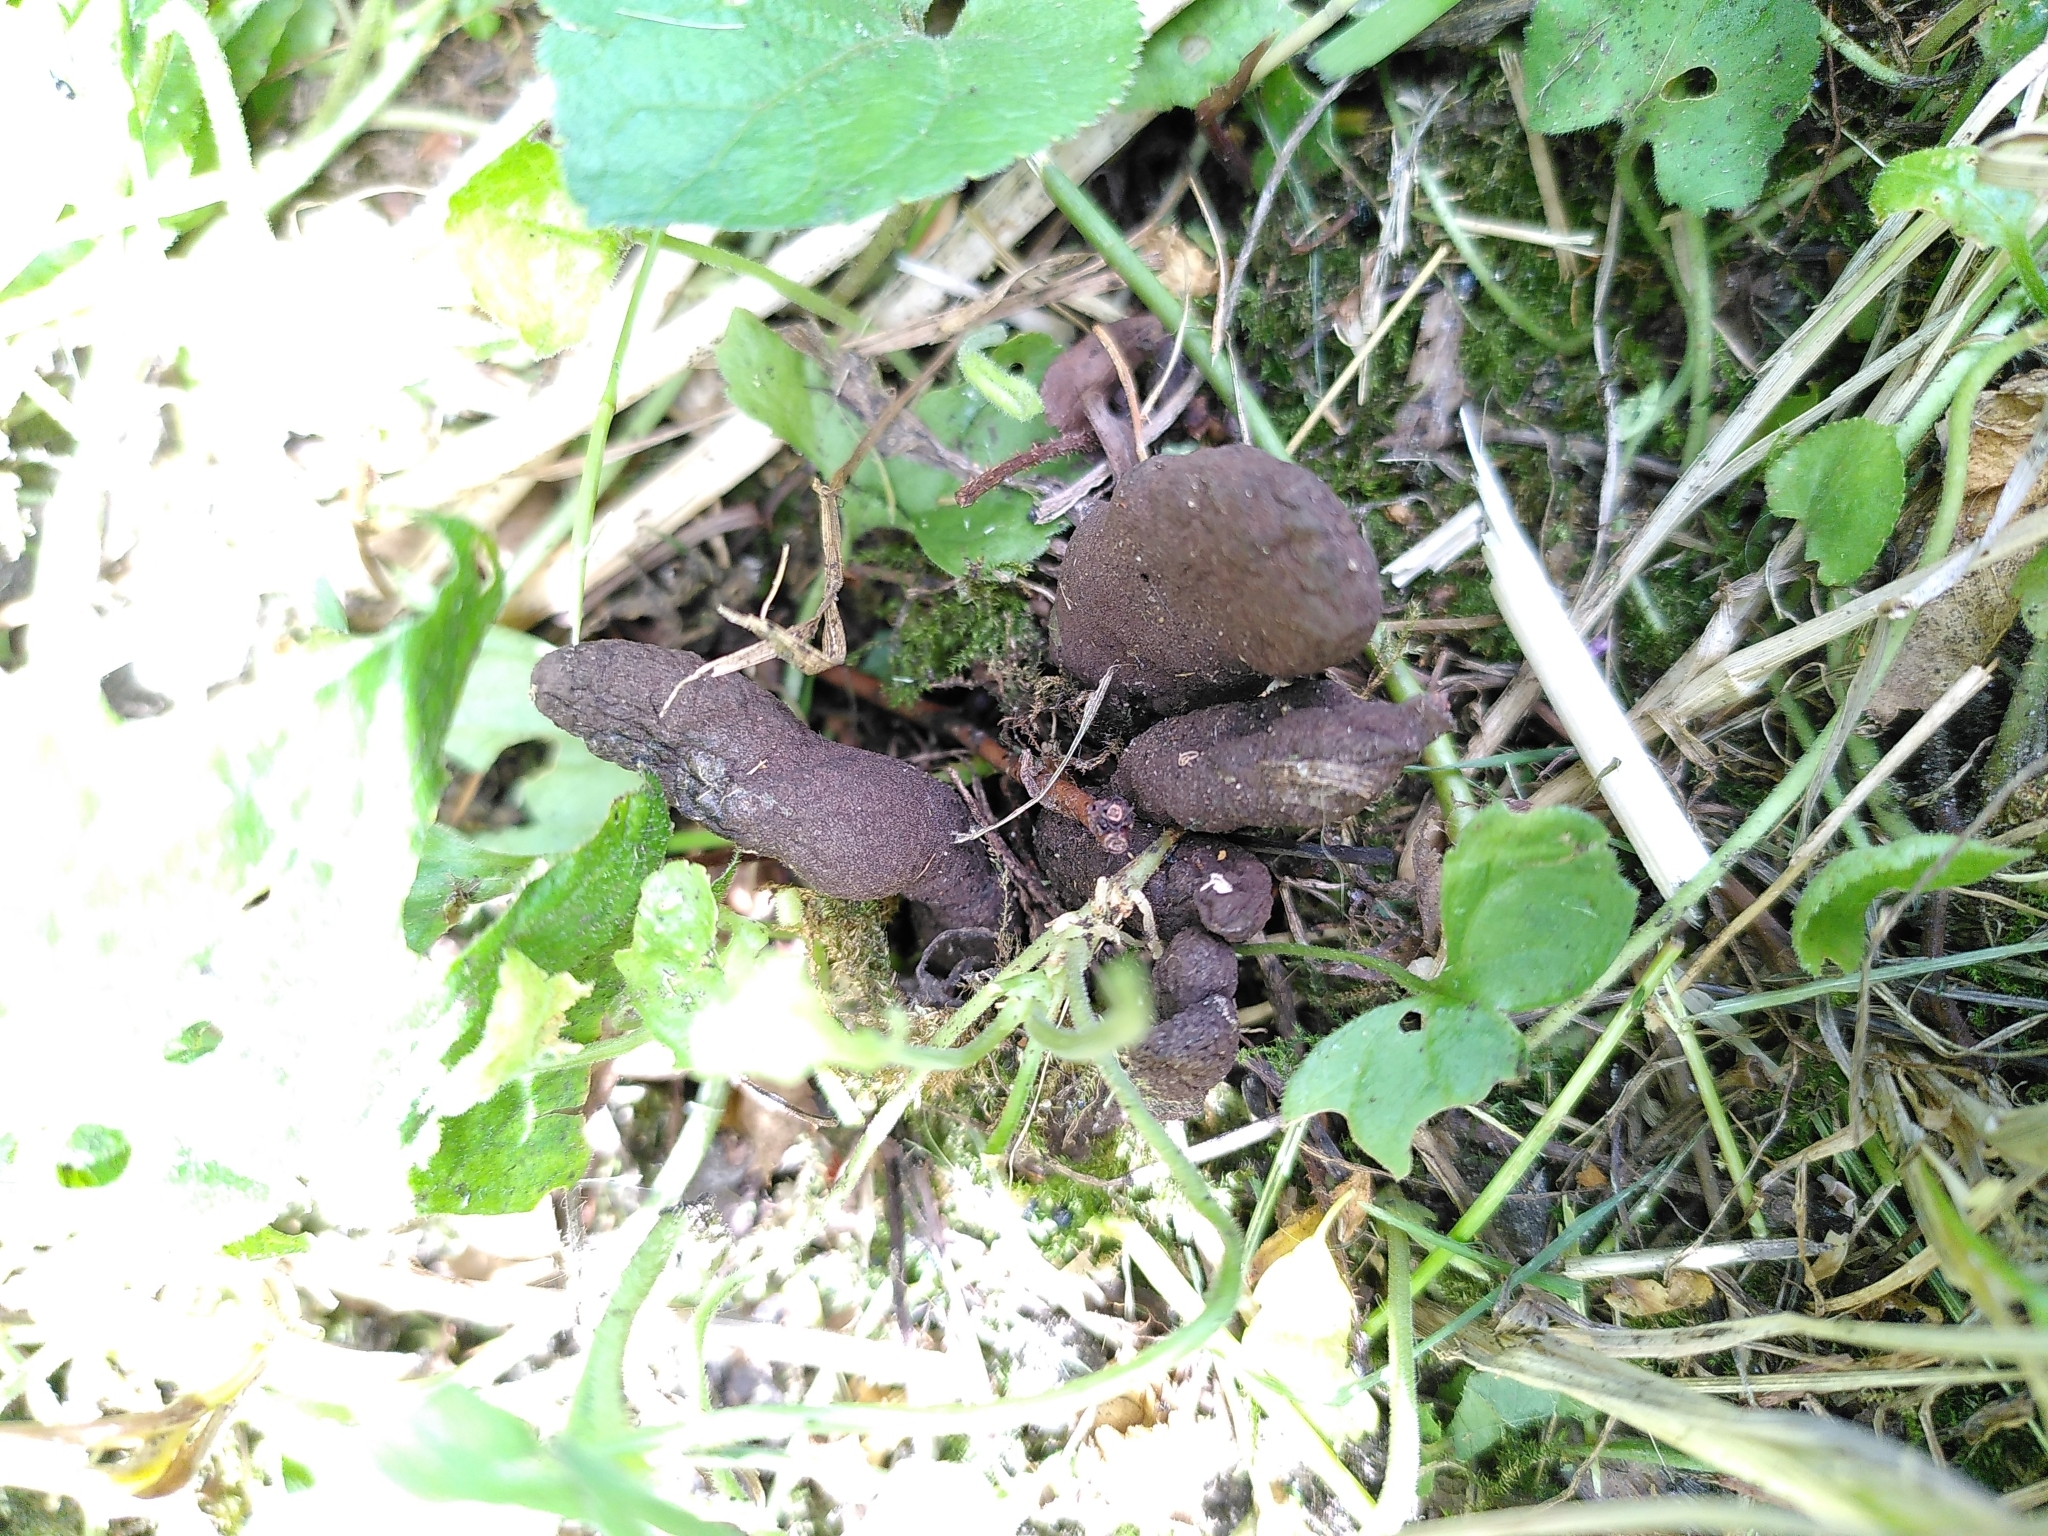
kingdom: Fungi
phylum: Ascomycota
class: Sordariomycetes
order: Xylariales
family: Xylariaceae
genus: Xylaria
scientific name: Xylaria polymorpha
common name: Dead man's fingers
